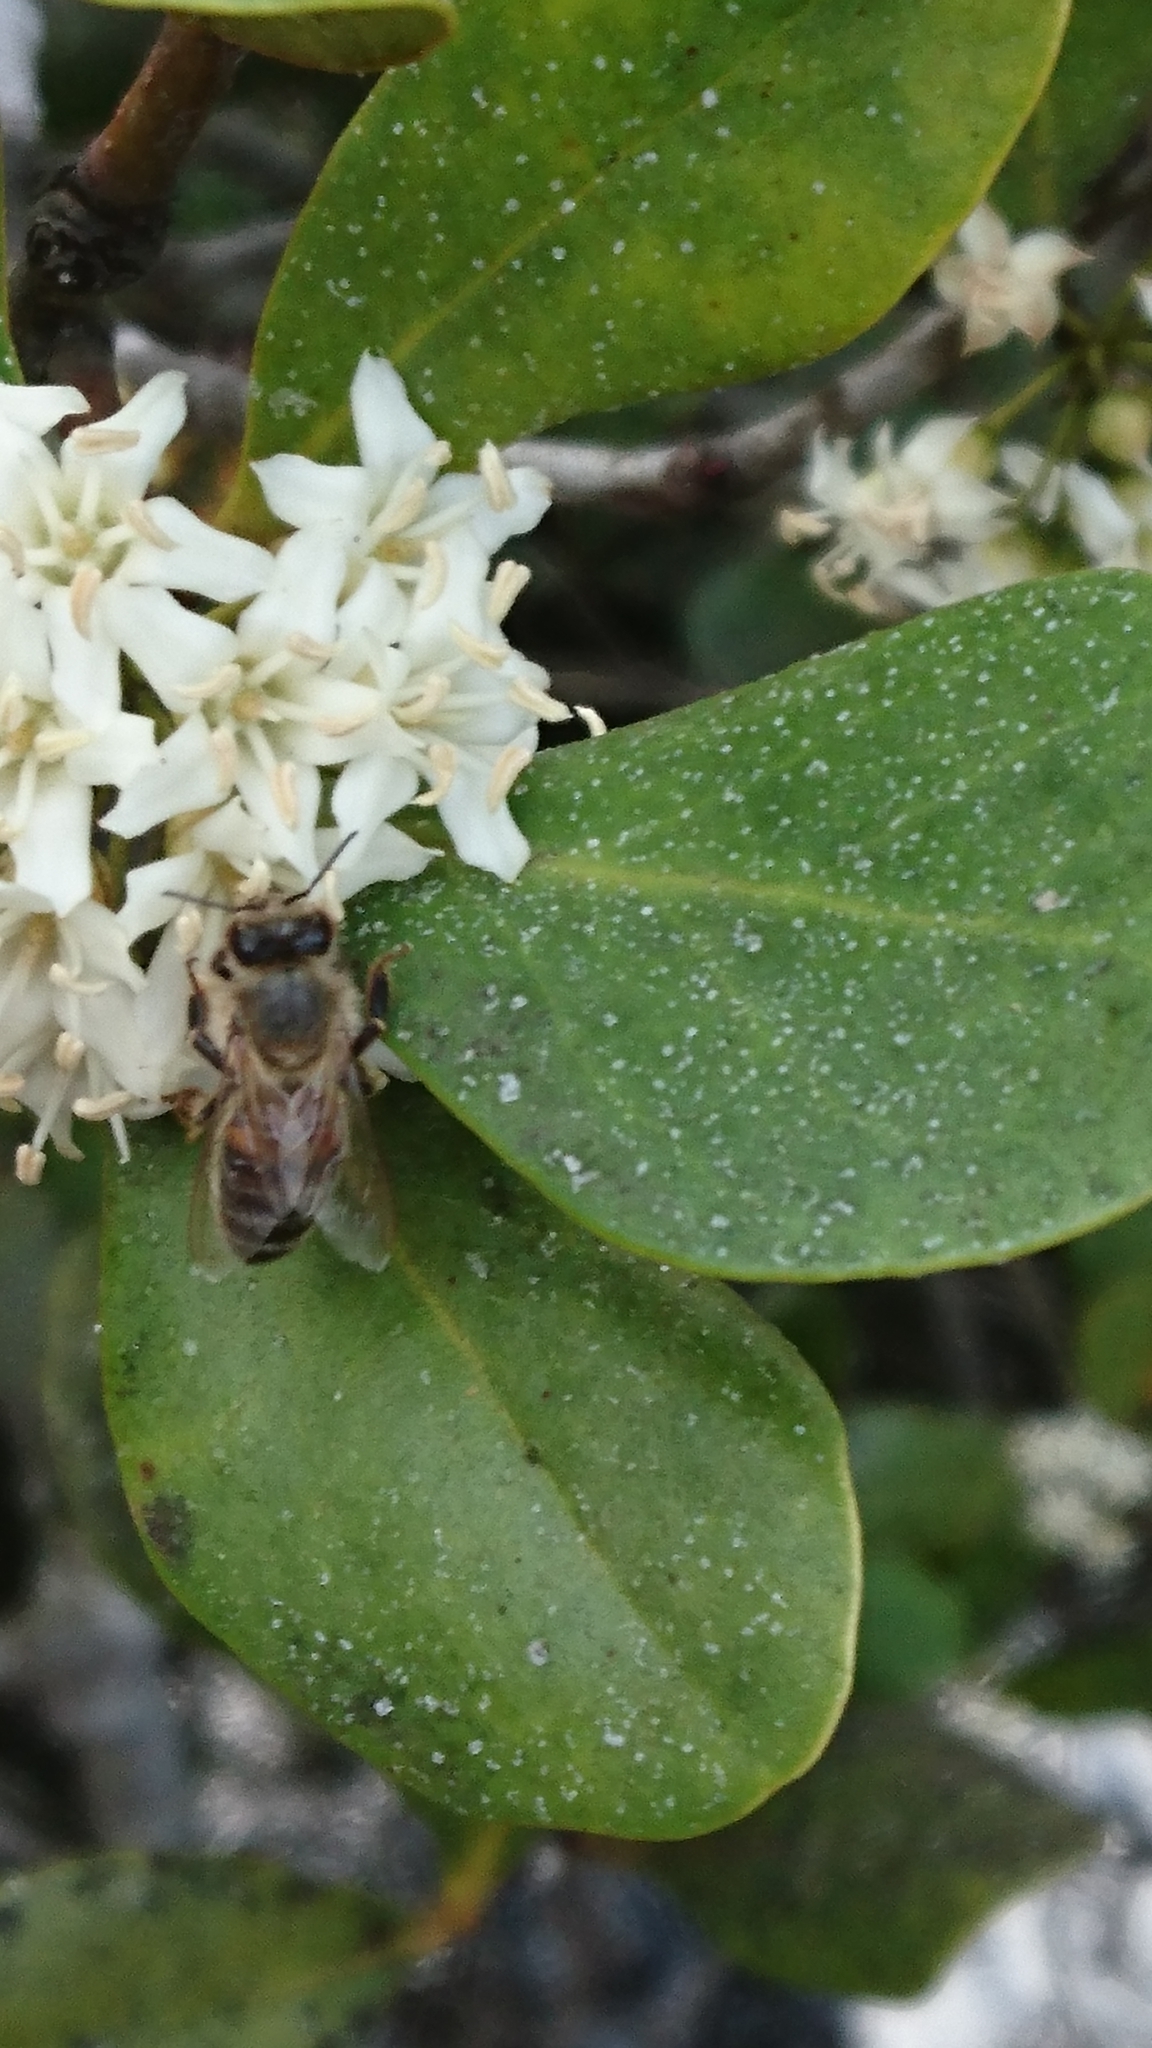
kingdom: Animalia
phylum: Arthropoda
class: Insecta
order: Hymenoptera
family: Apidae
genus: Apis
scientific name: Apis mellifera
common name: Honey bee
